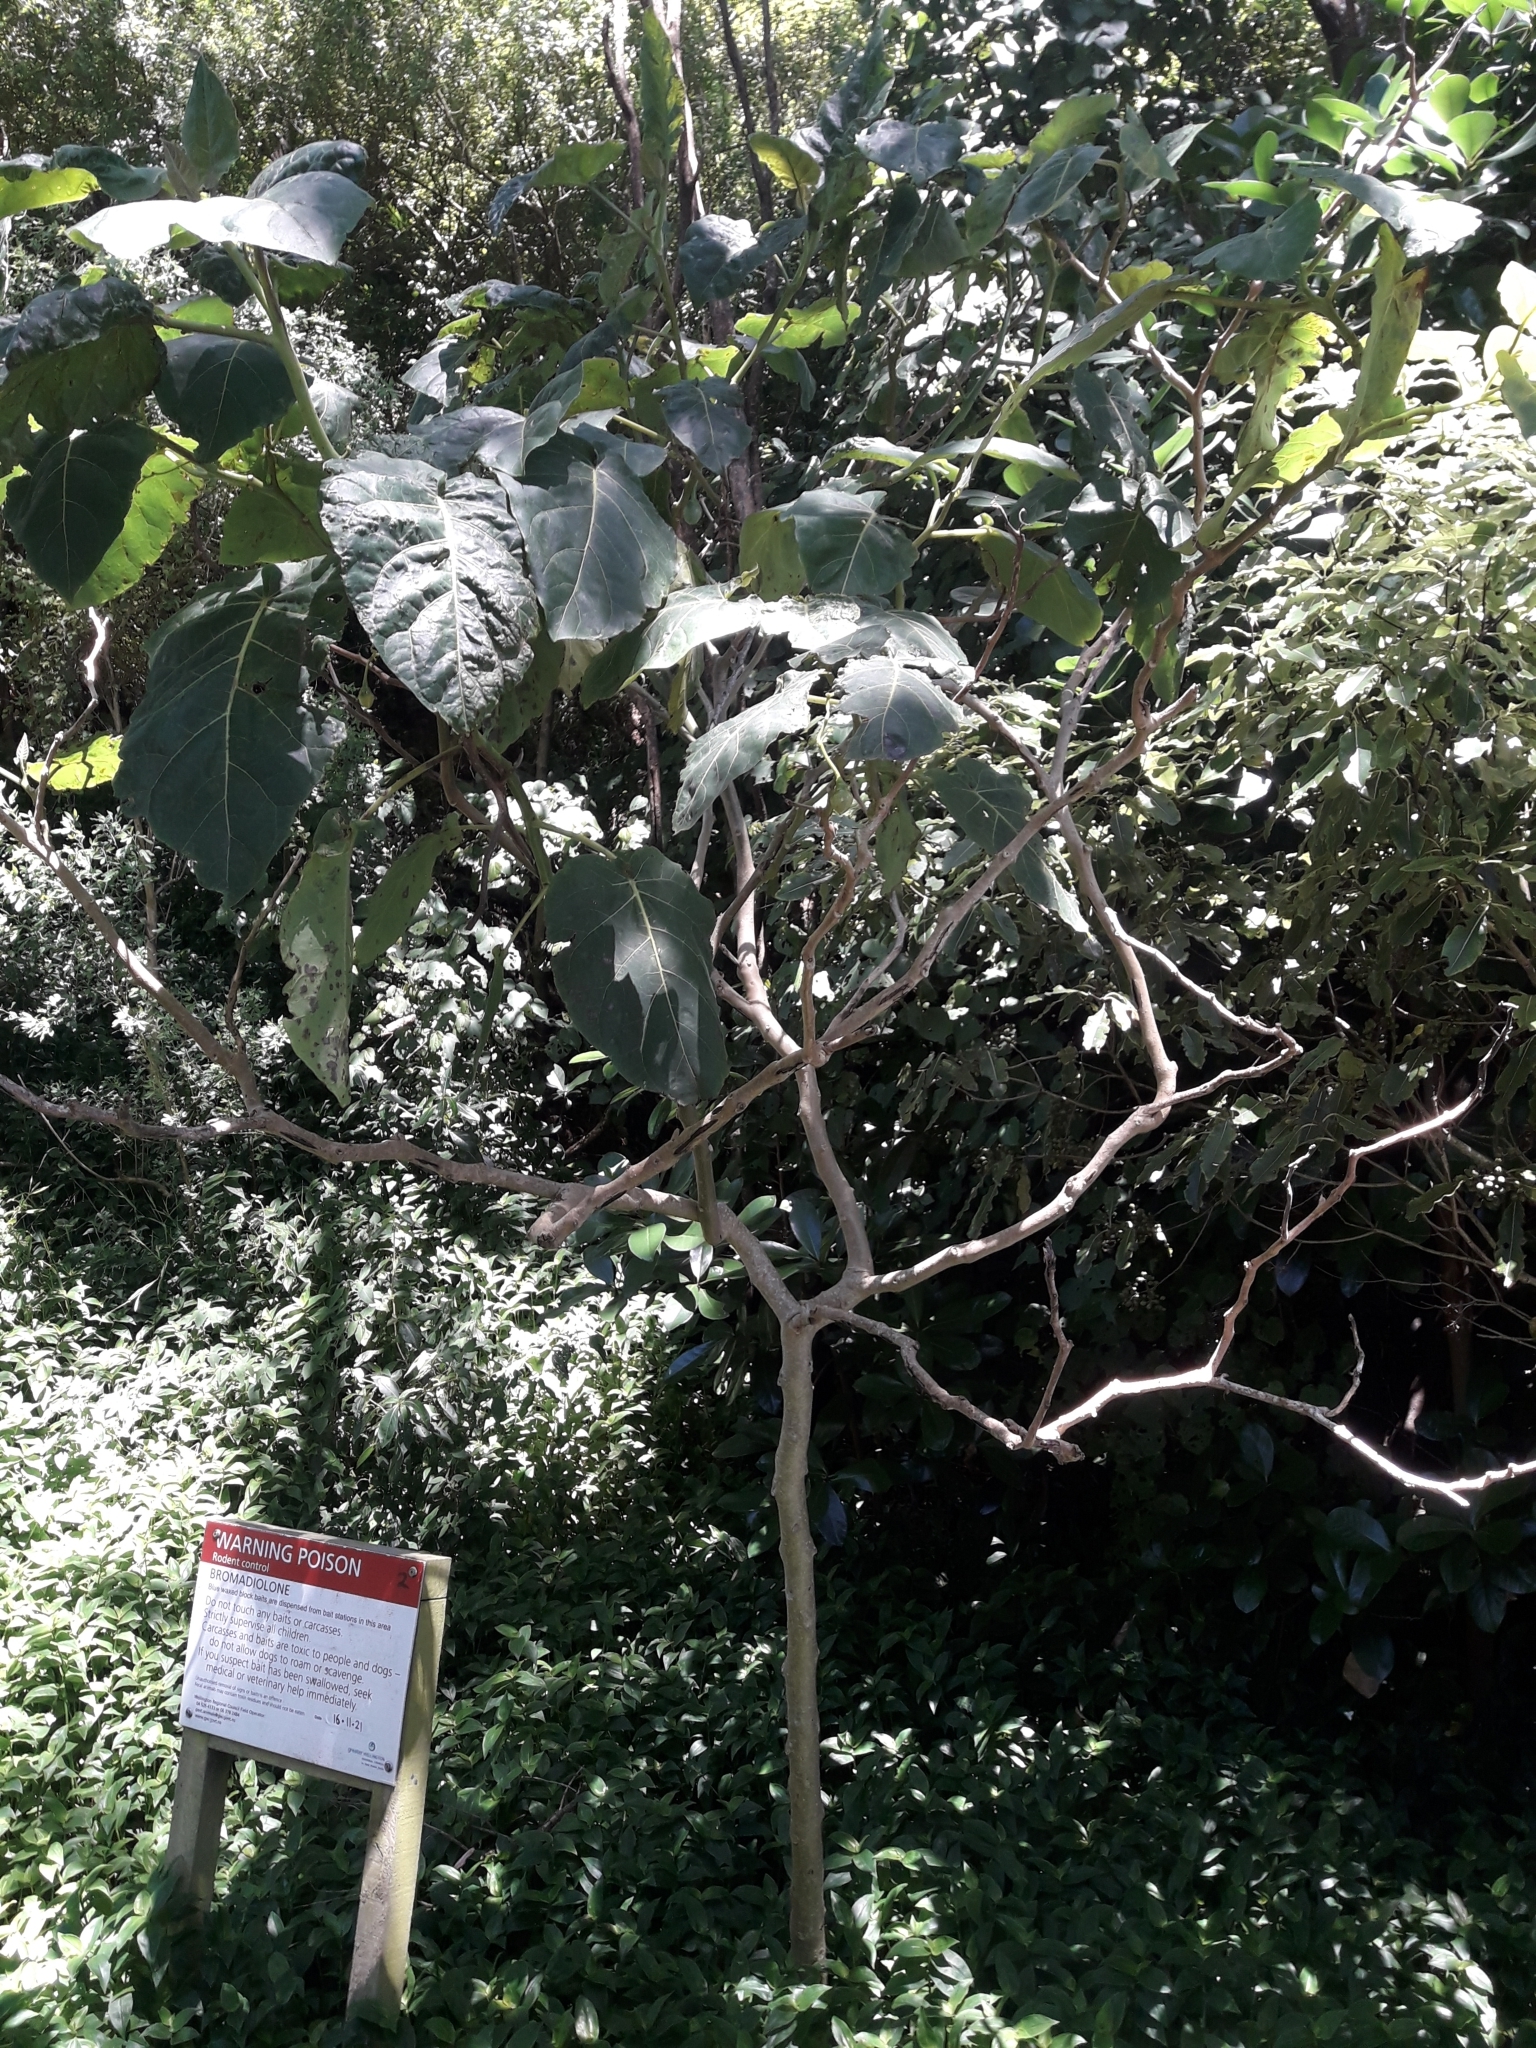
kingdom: Plantae
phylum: Tracheophyta
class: Magnoliopsida
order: Solanales
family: Solanaceae
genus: Solanum
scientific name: Solanum betaceum
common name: Tamarillo
